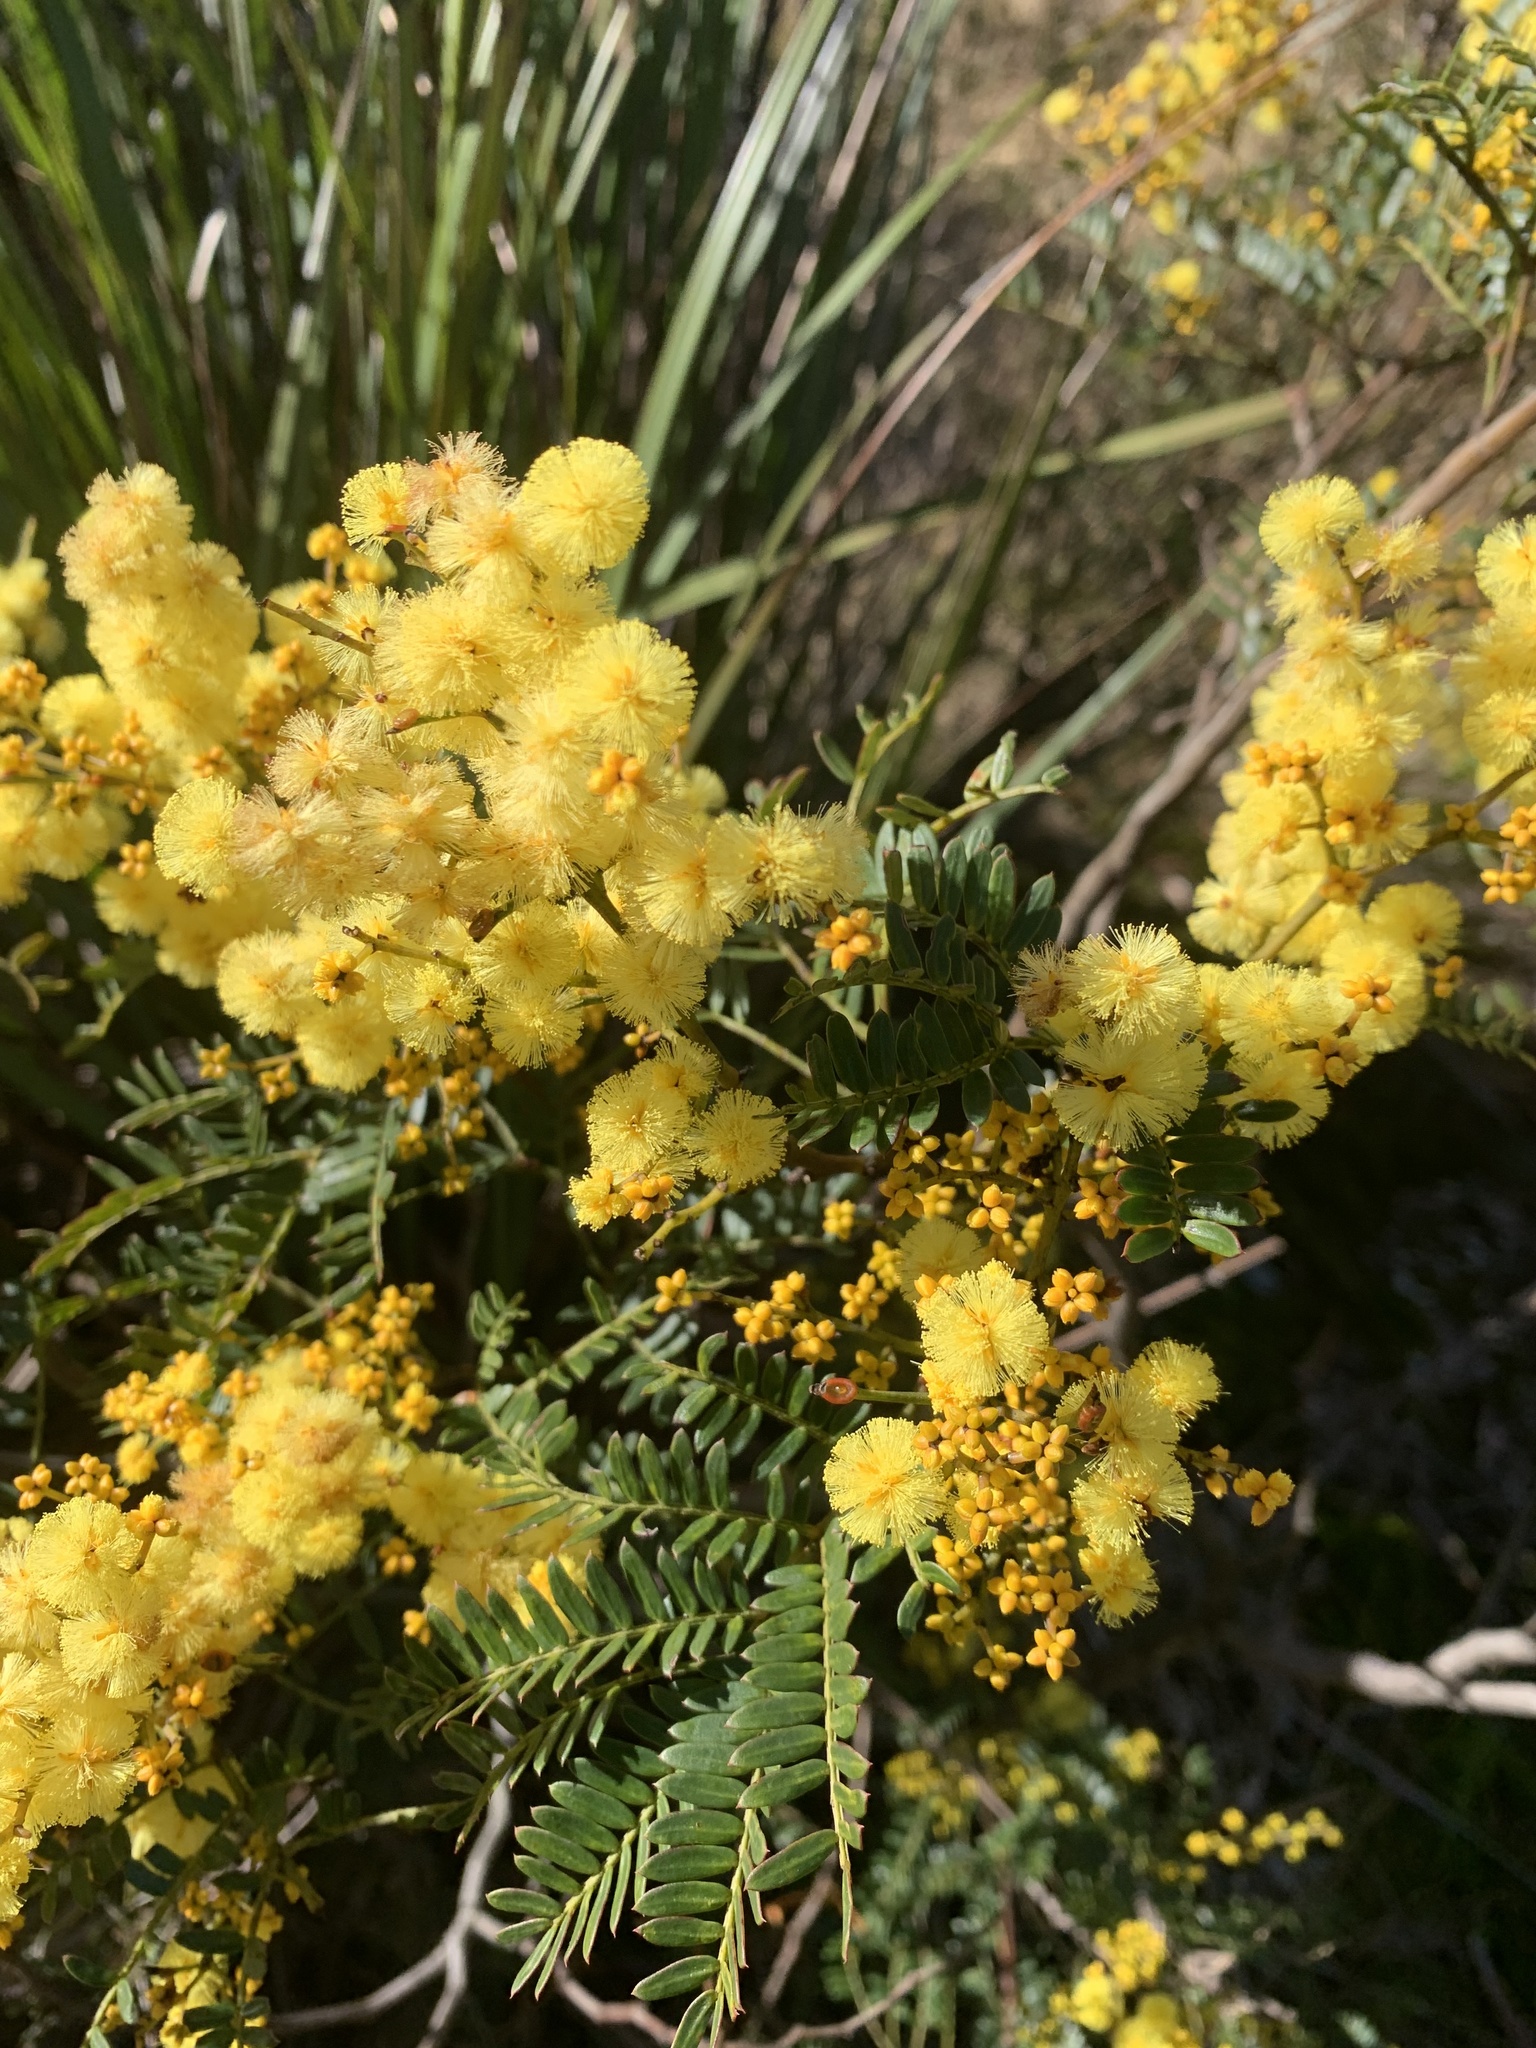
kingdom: Plantae
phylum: Tracheophyta
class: Magnoliopsida
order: Fabales
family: Fabaceae
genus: Acacia
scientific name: Acacia terminalis
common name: Cedar wattle
